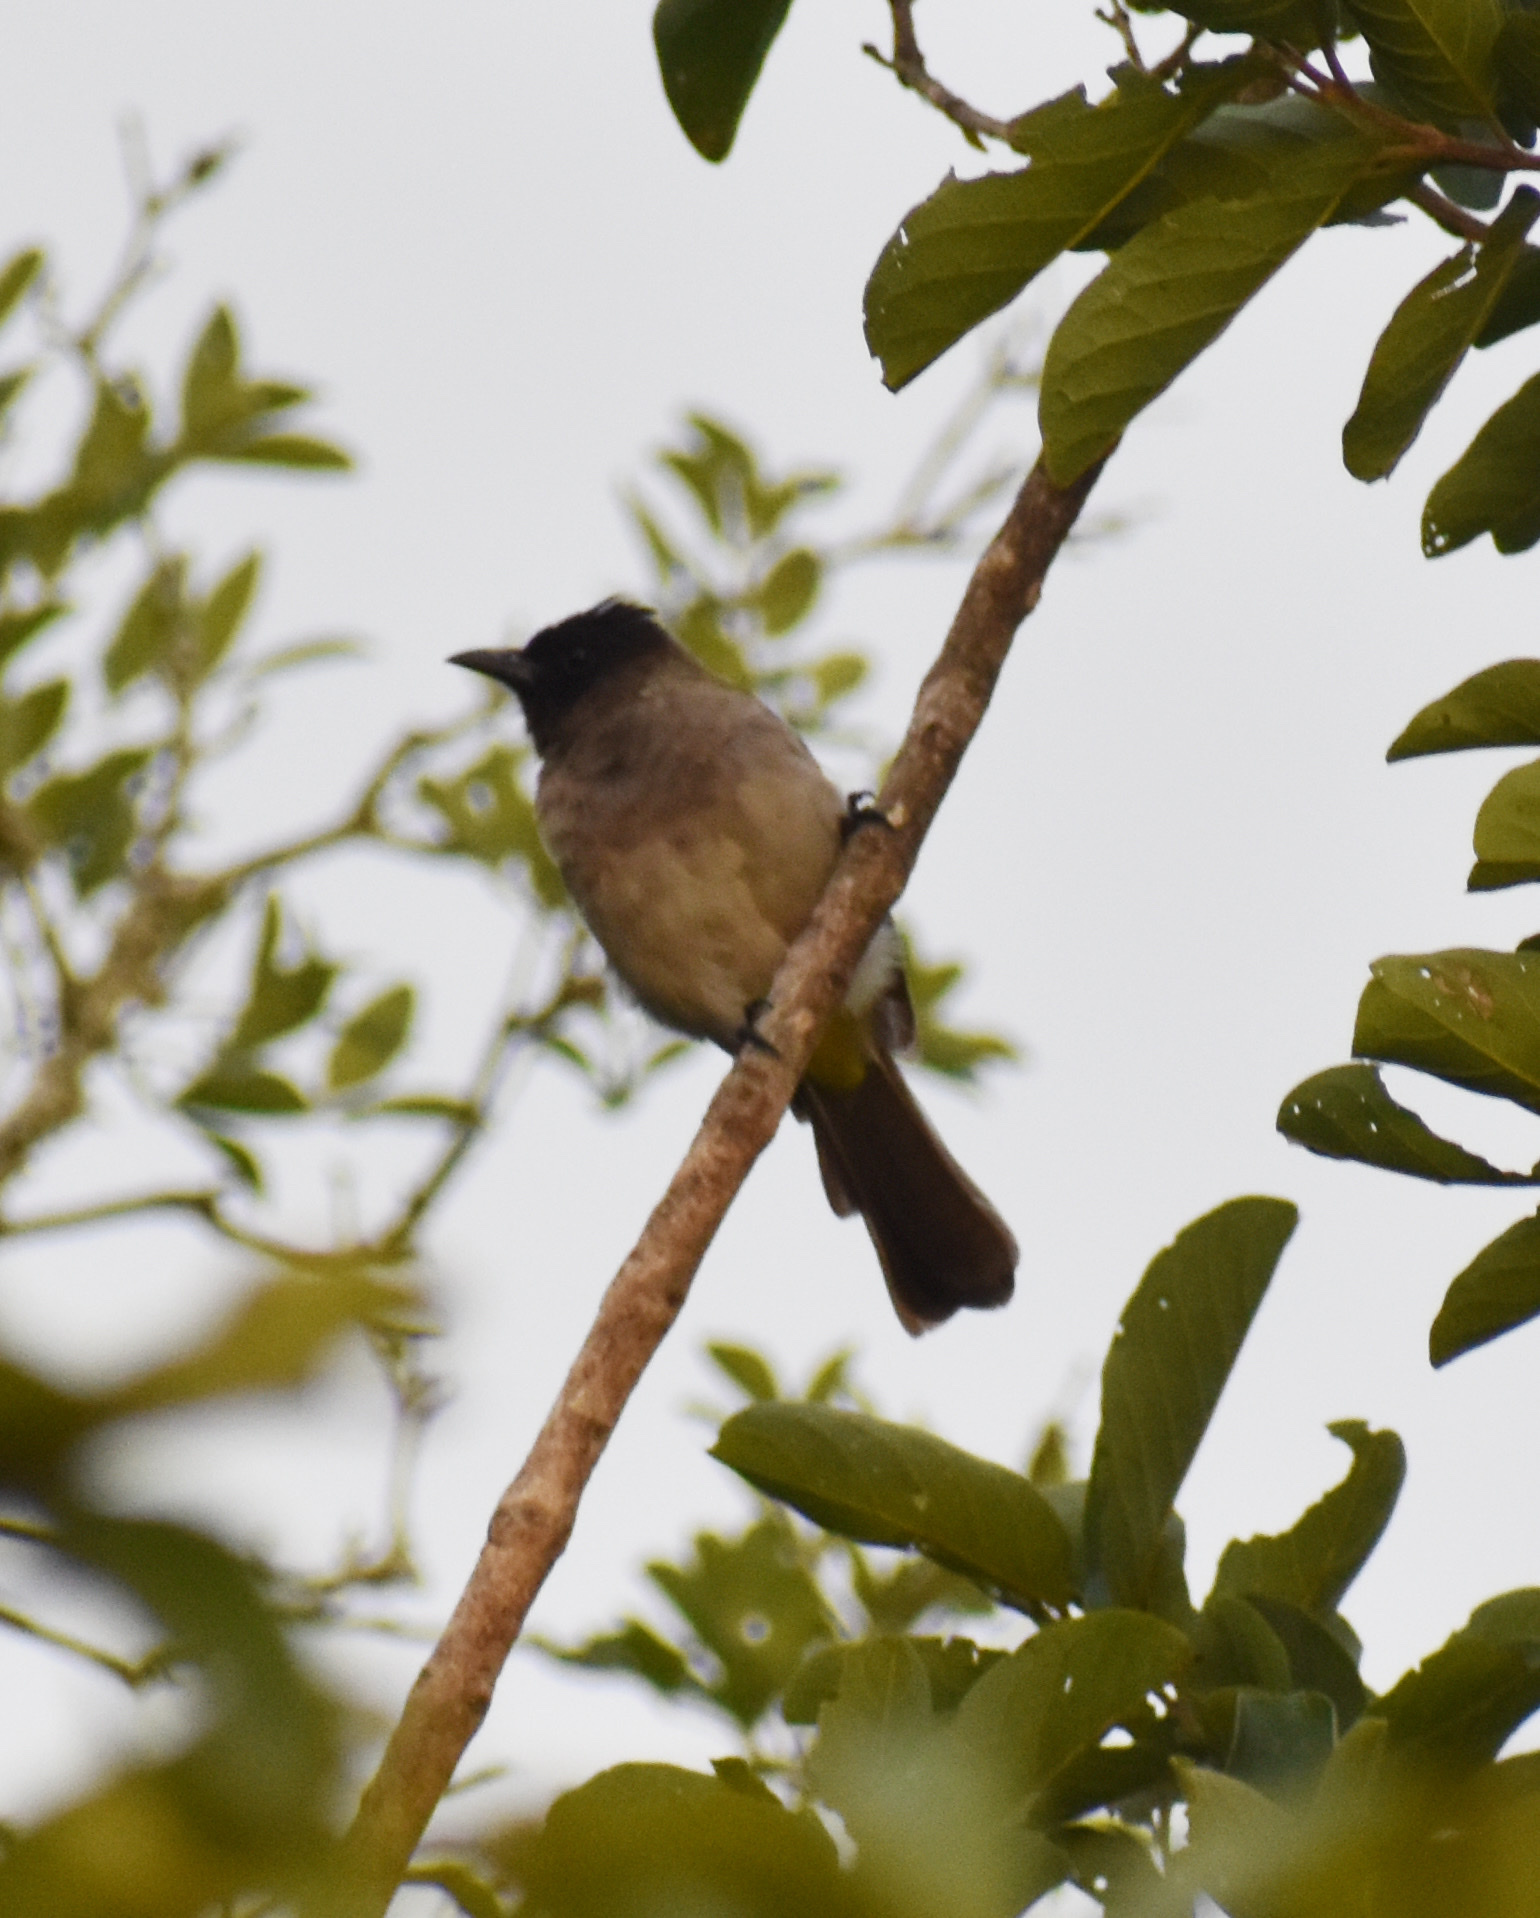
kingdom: Animalia
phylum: Chordata
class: Aves
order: Passeriformes
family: Pycnonotidae
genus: Pycnonotus
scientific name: Pycnonotus barbatus
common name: Common bulbul
